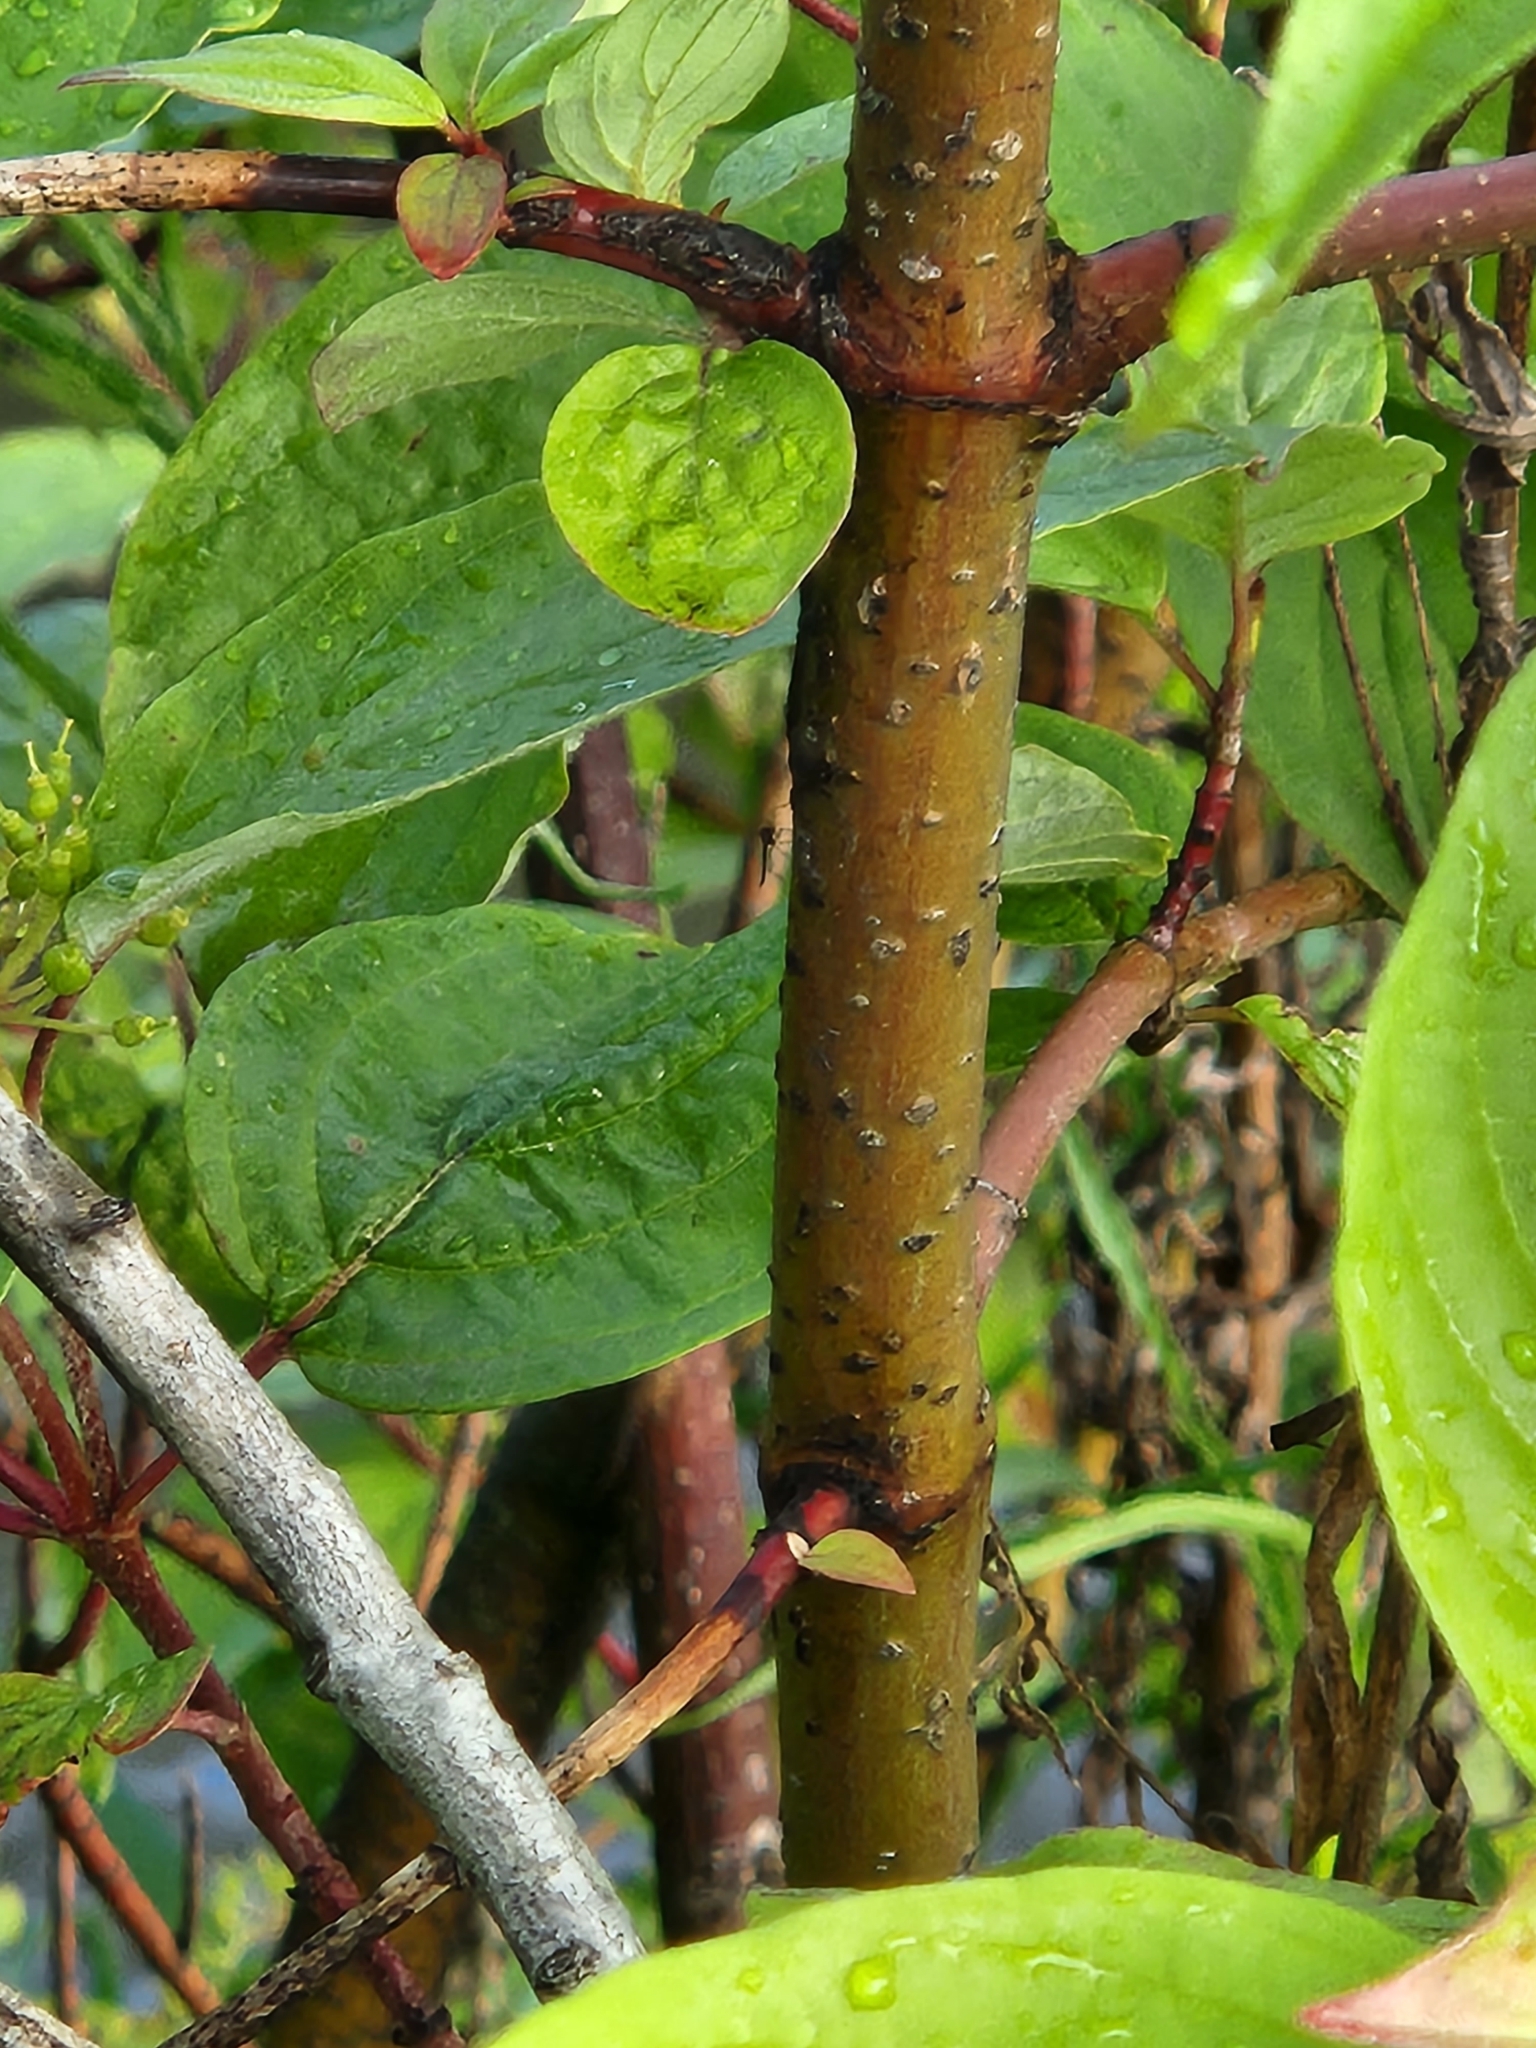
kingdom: Plantae
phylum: Tracheophyta
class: Magnoliopsida
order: Cornales
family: Cornaceae
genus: Cornus
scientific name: Cornus sericea
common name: Red-osier dogwood
